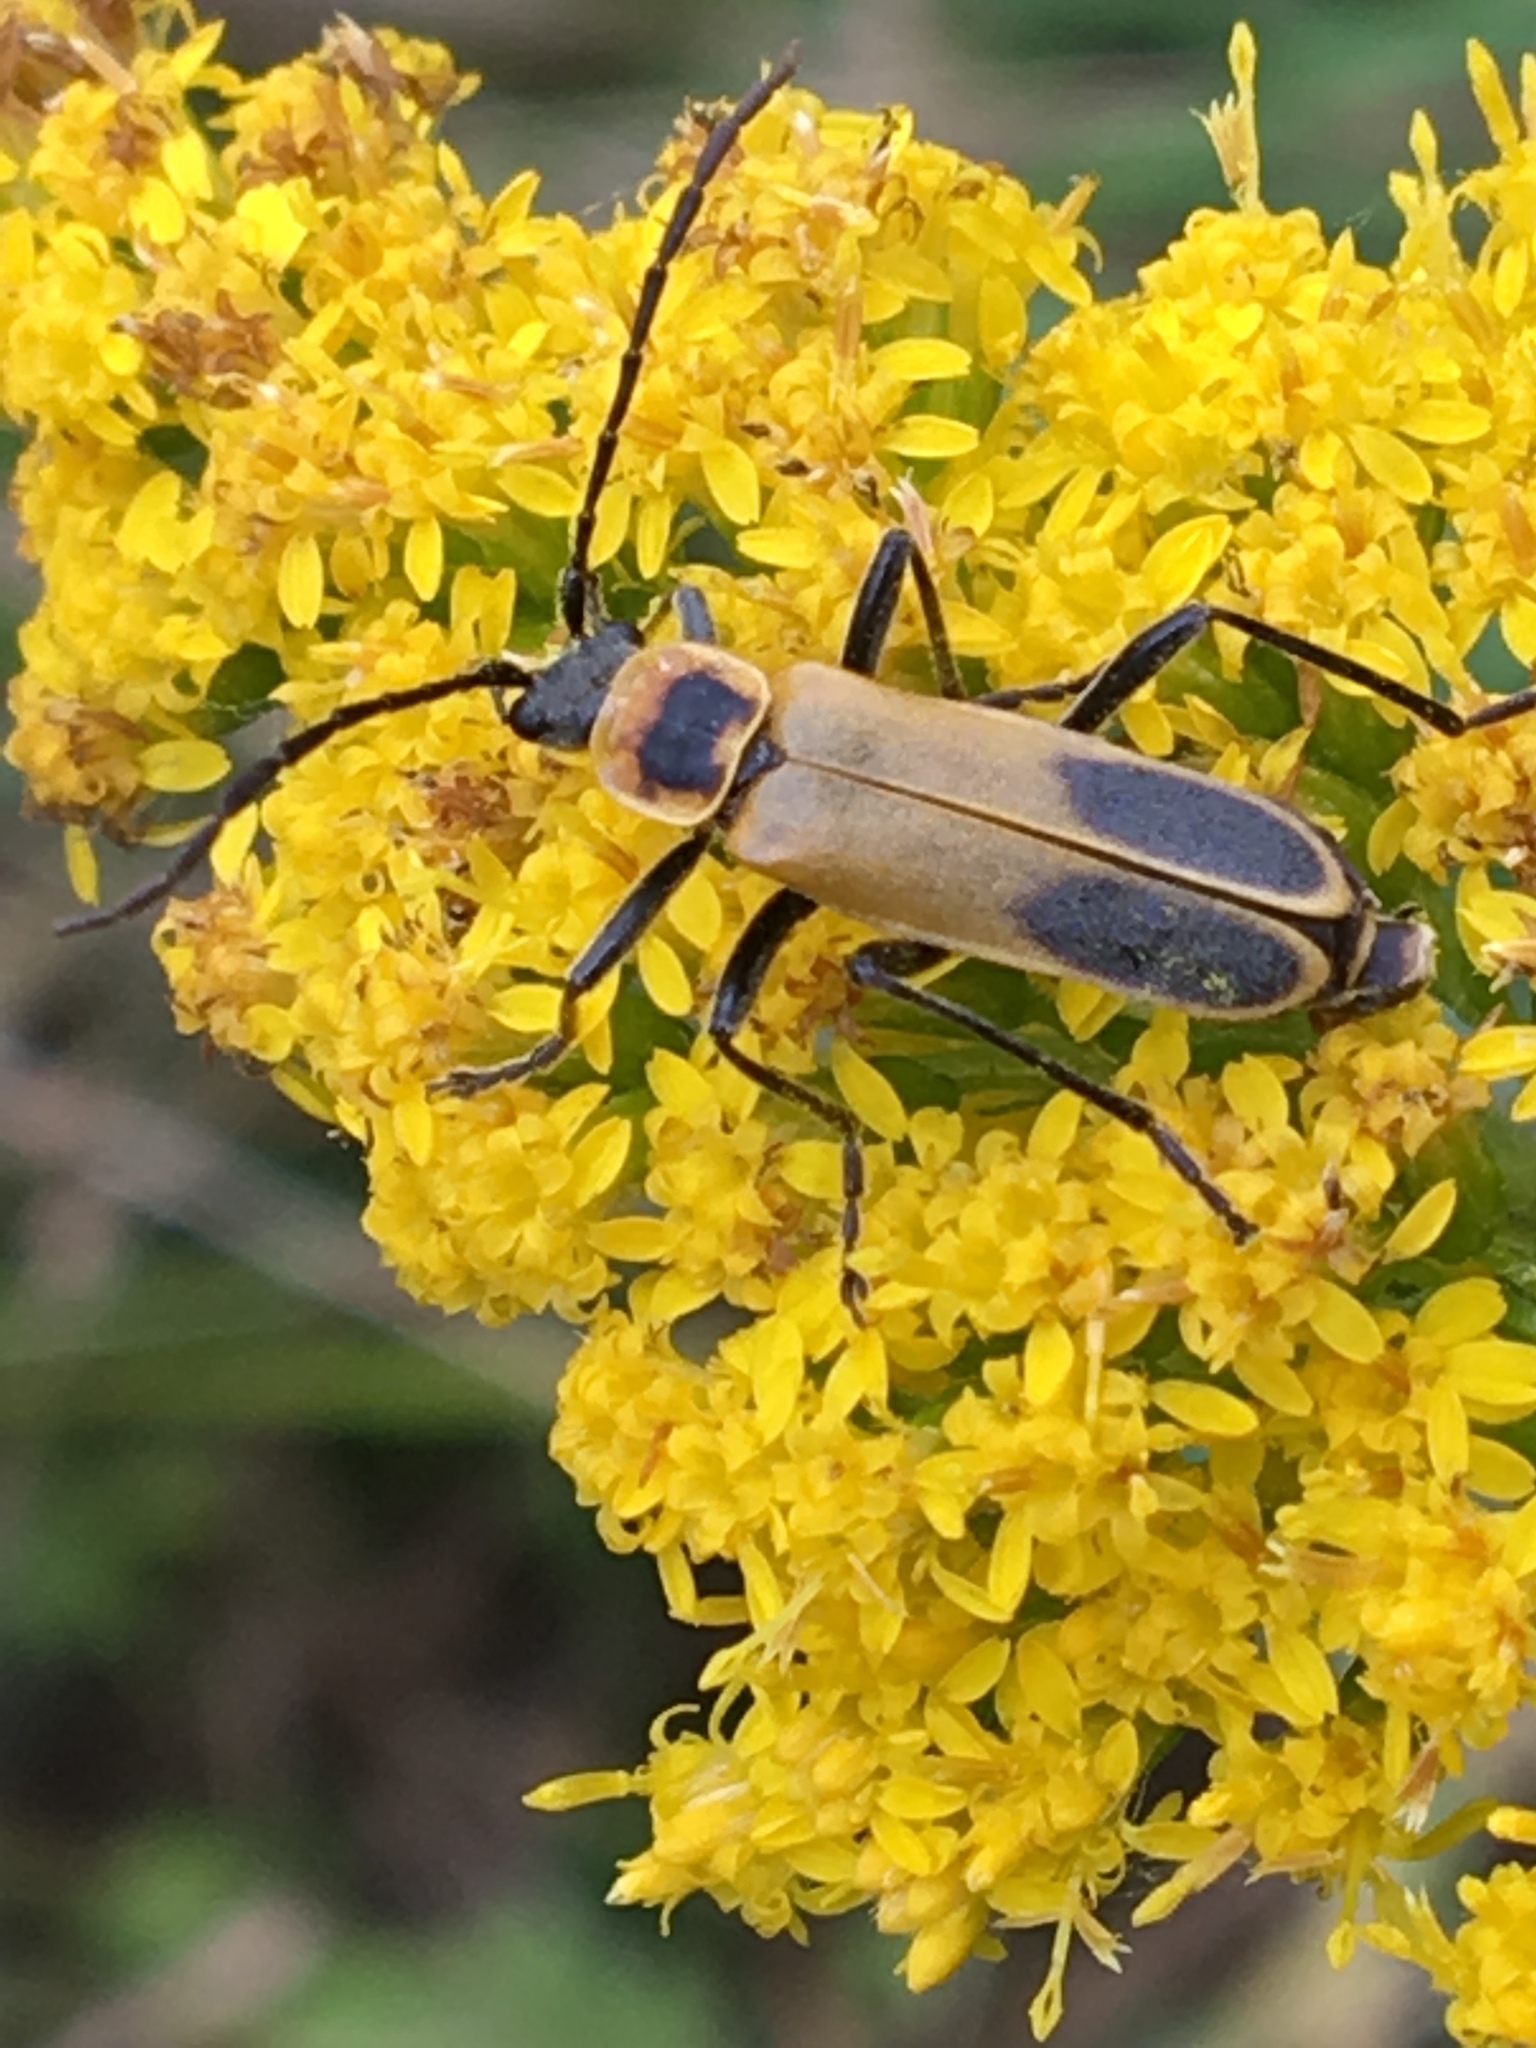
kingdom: Animalia
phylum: Arthropoda
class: Insecta
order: Coleoptera
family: Cantharidae
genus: Chauliognathus
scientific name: Chauliognathus pensylvanicus
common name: Goldenrod soldier beetle
